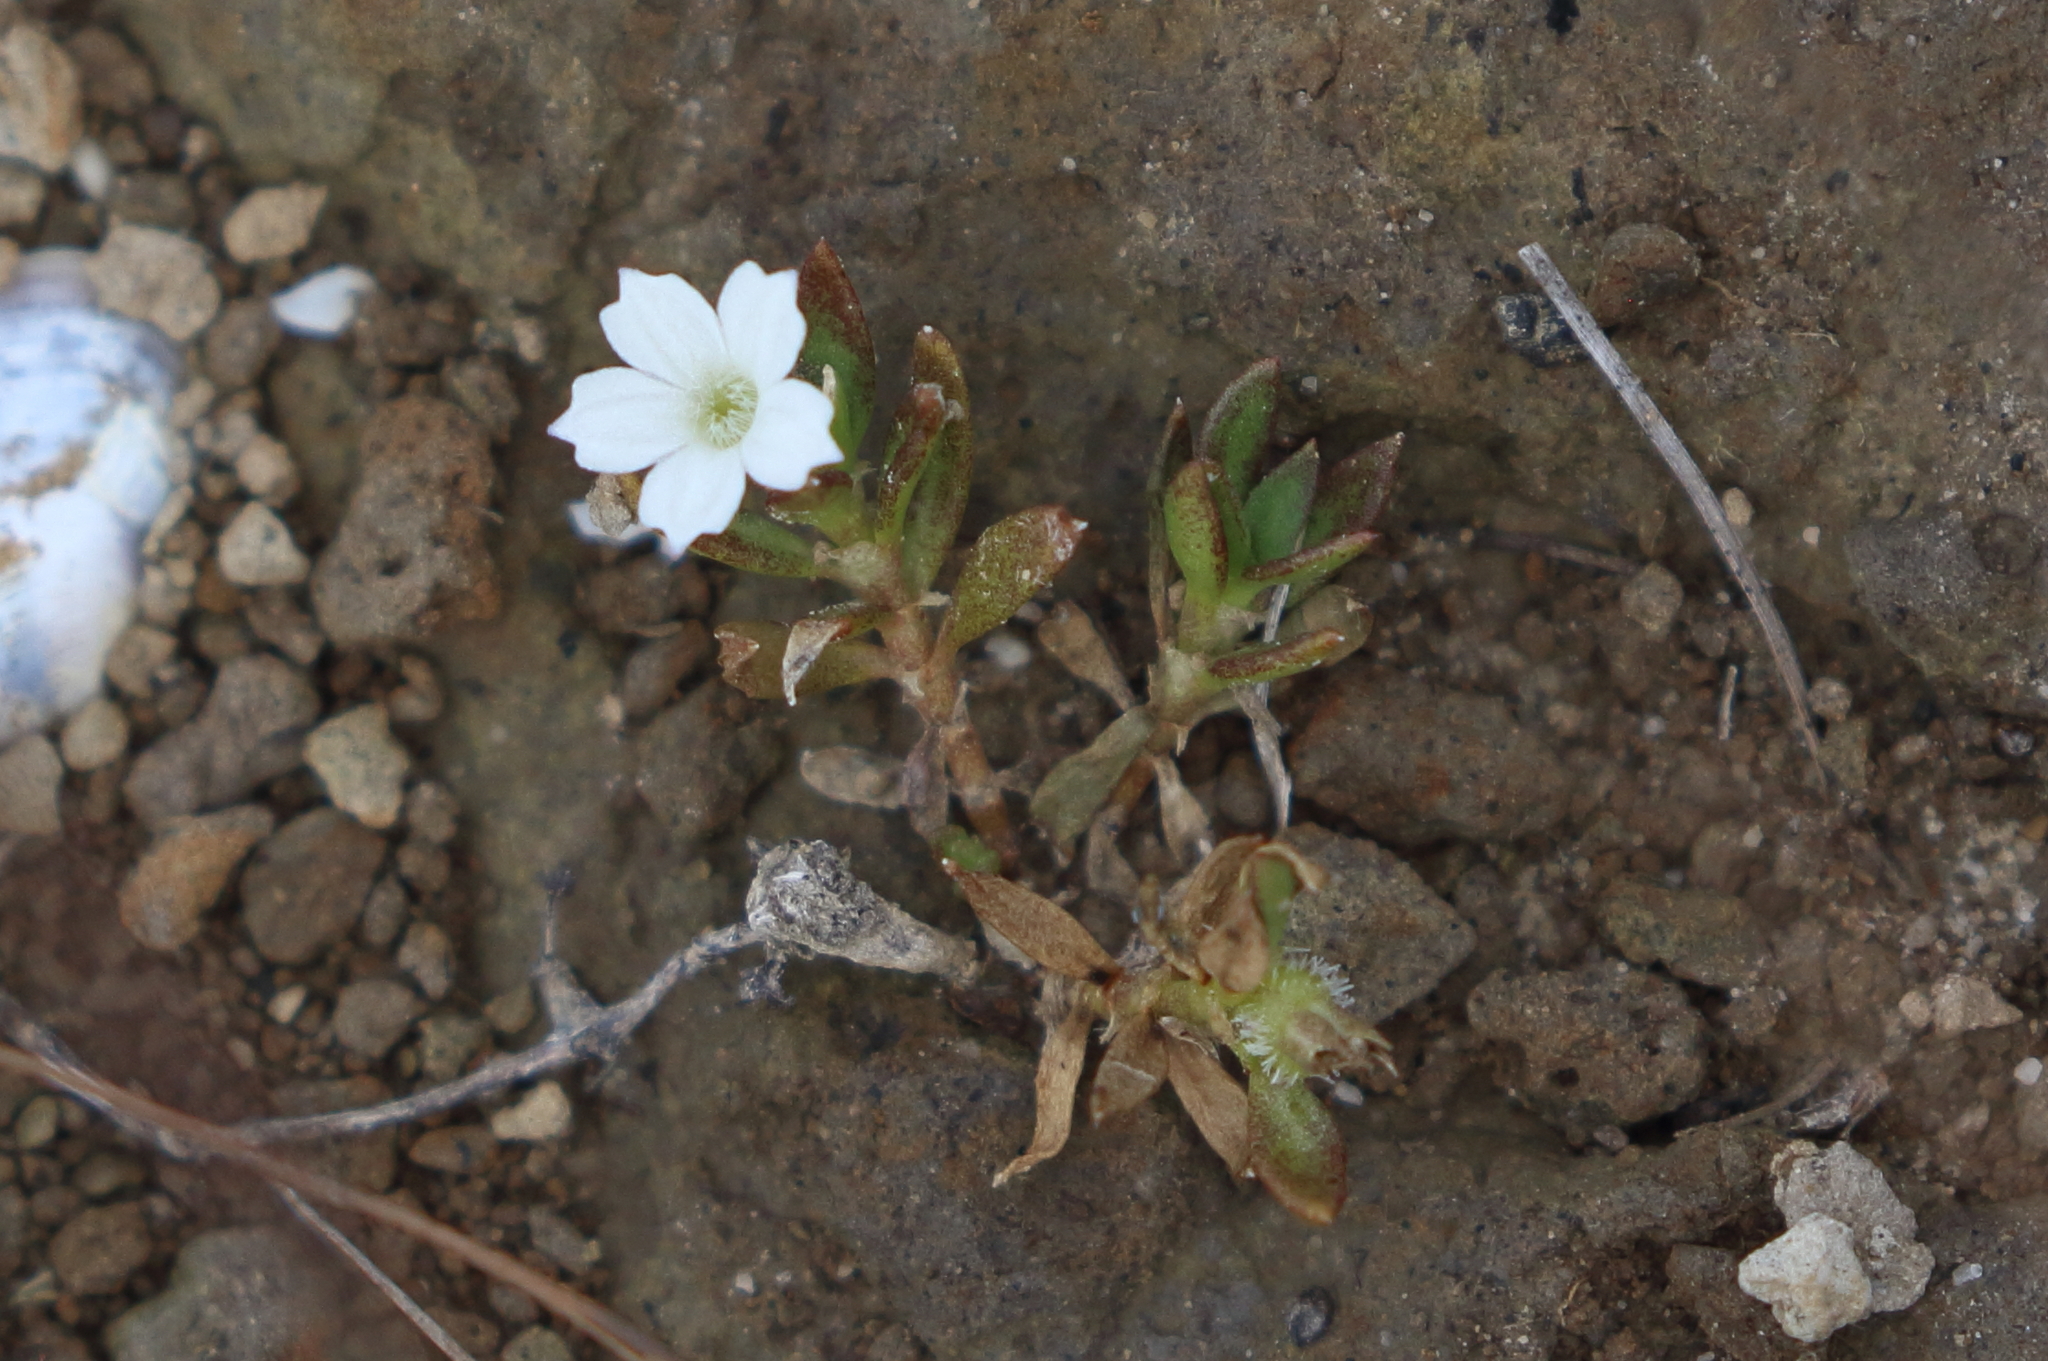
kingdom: Plantae
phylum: Tracheophyta
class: Magnoliopsida
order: Gentianales
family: Rubiaceae
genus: Dentella
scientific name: Dentella repens
